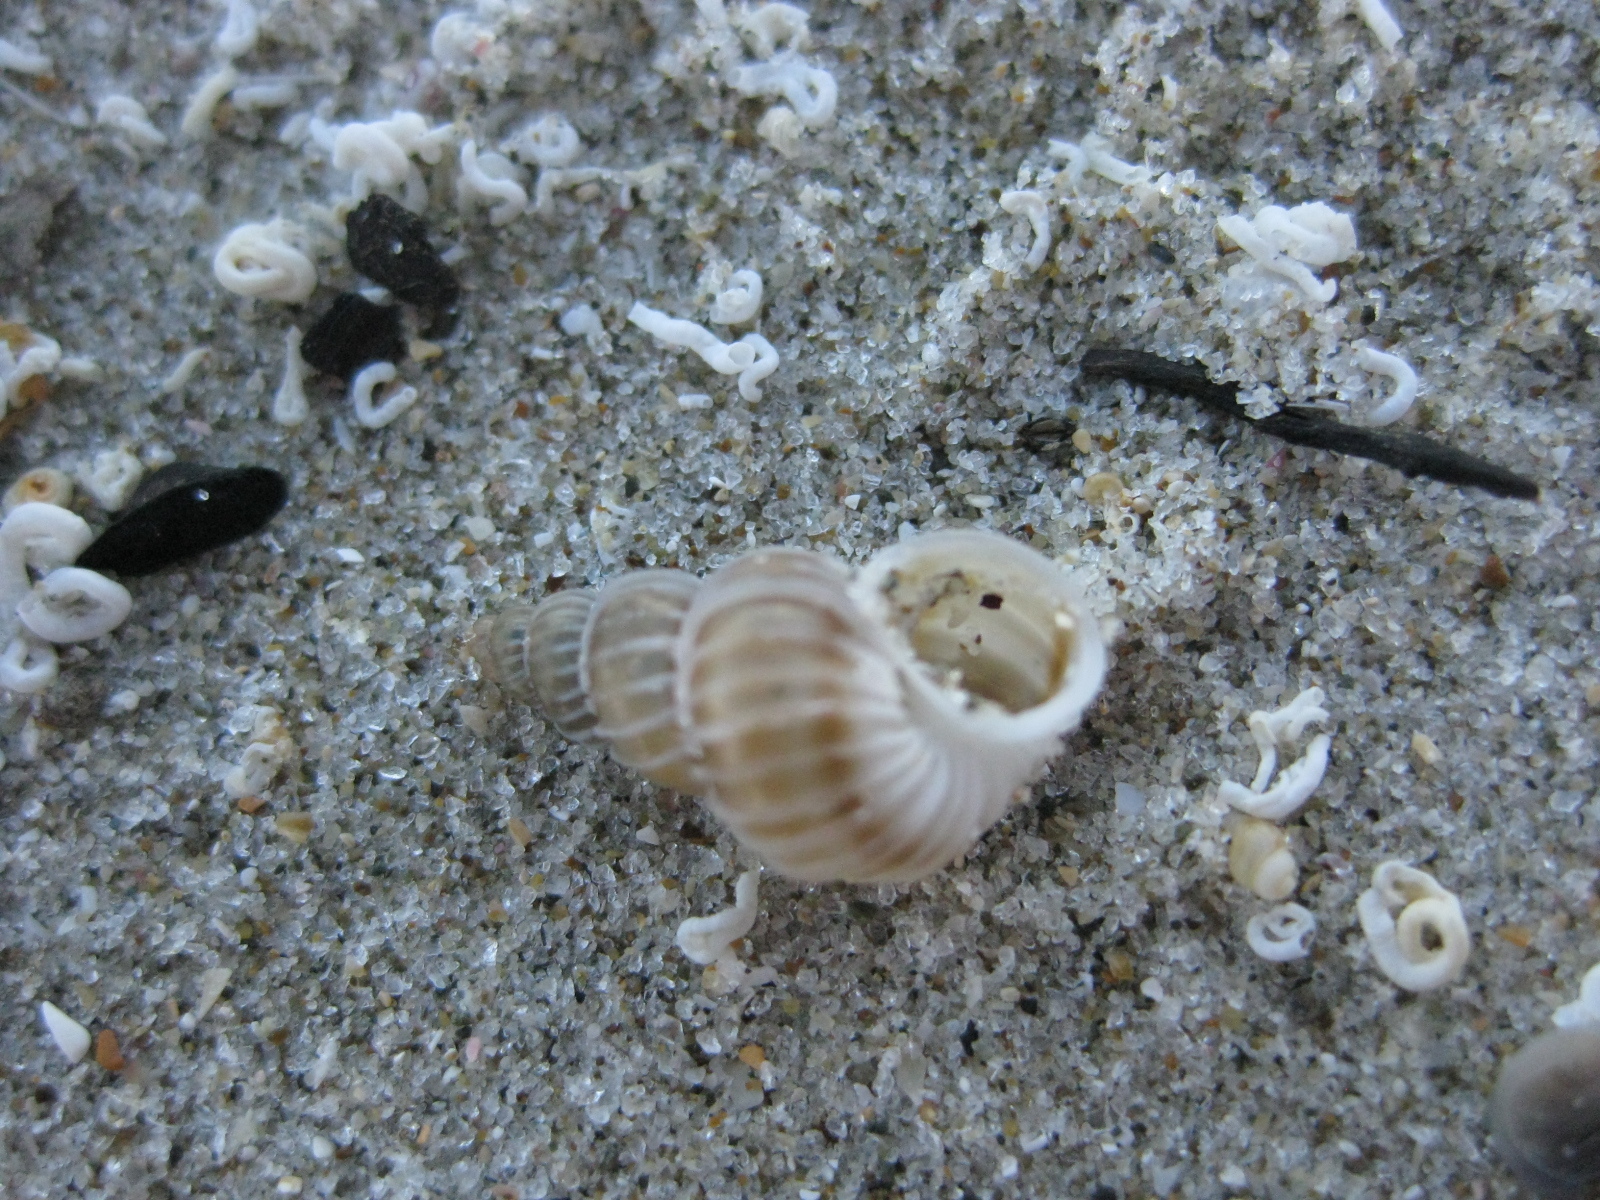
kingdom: Animalia
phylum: Mollusca
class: Gastropoda
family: Epitoniidae
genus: Epitonium
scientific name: Epitonium tenellum
